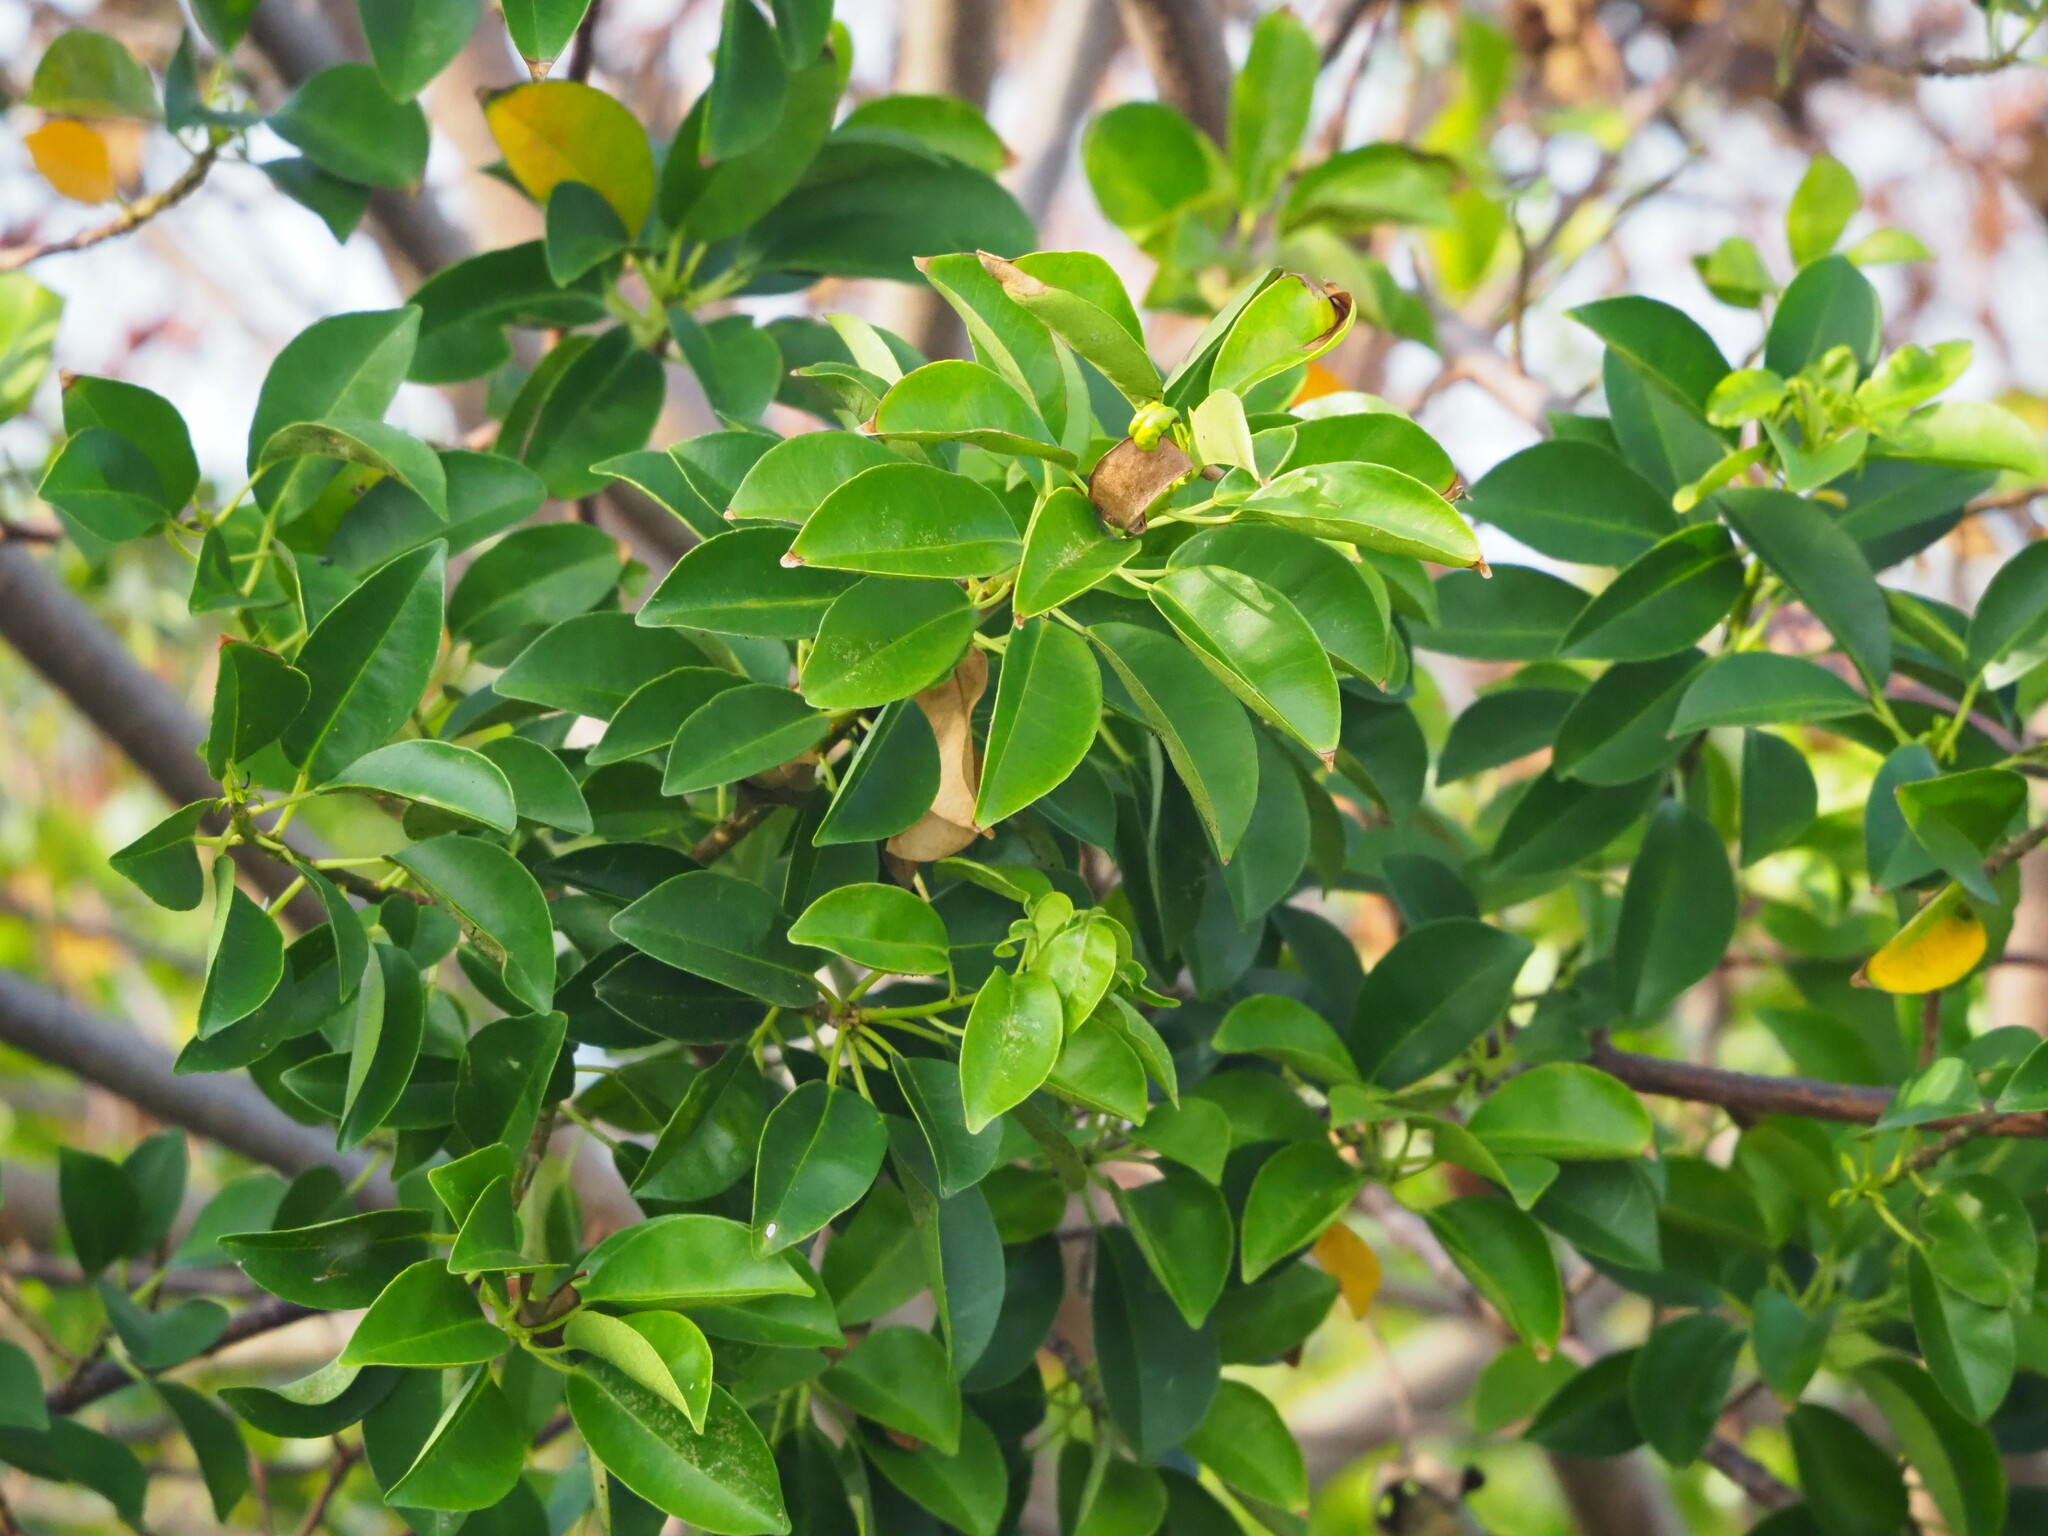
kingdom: Plantae
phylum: Tracheophyta
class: Magnoliopsida
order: Malpighiales
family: Euphorbiaceae
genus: Excoecaria
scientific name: Excoecaria agallocha
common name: River poisontree
